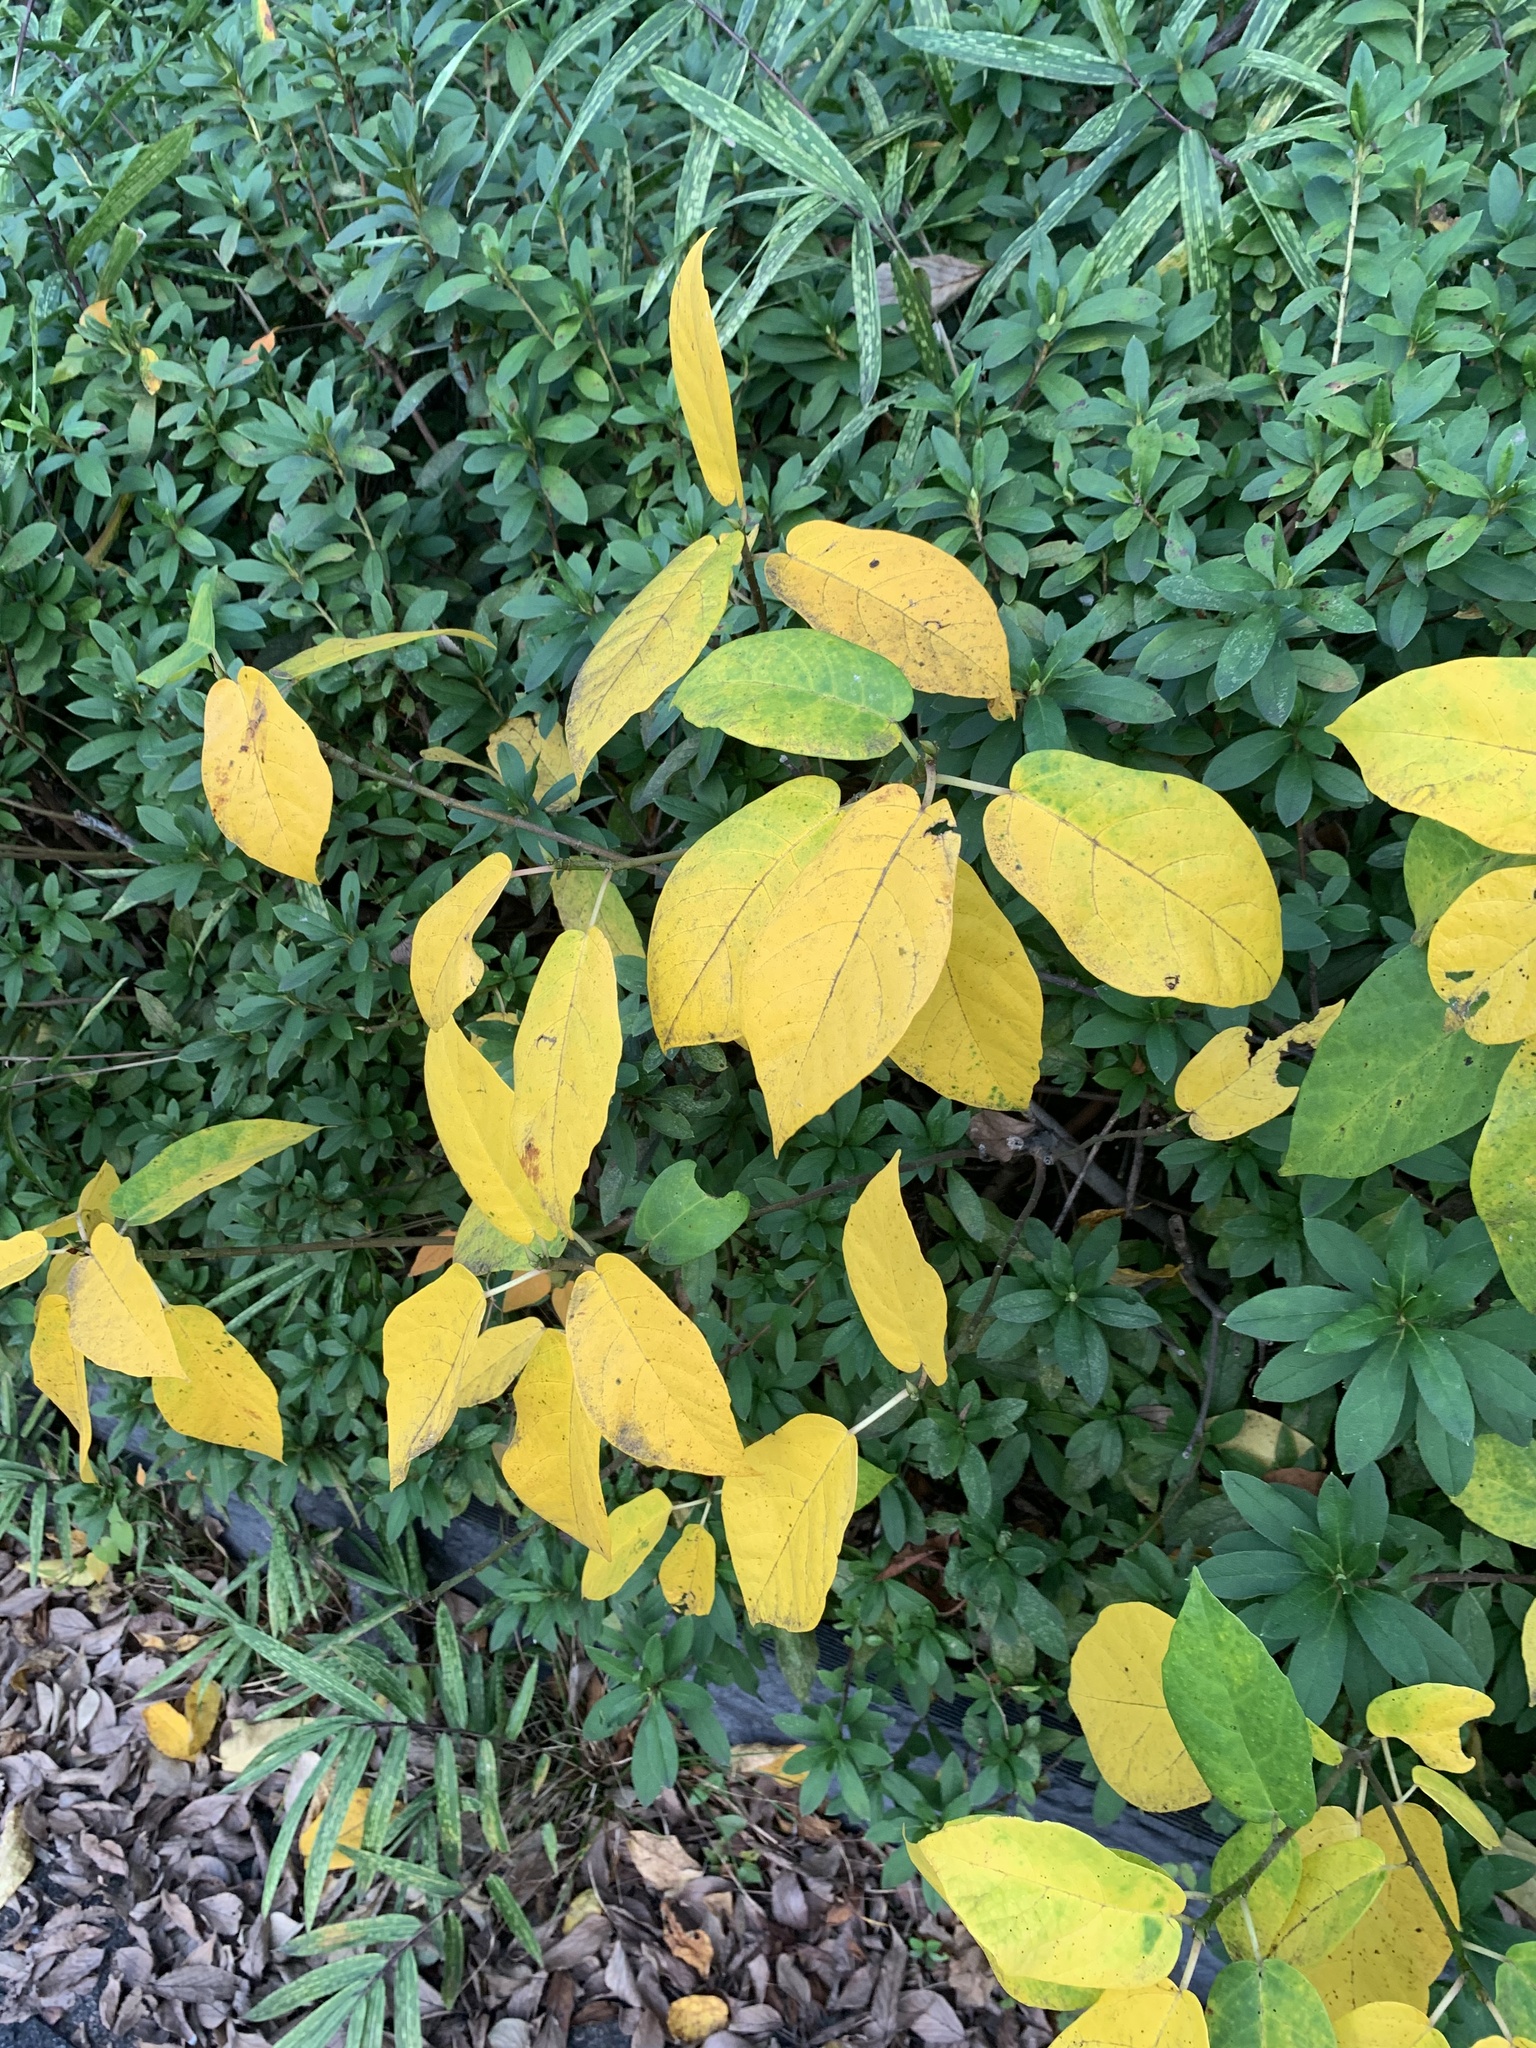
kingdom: Plantae
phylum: Tracheophyta
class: Magnoliopsida
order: Rosales
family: Moraceae
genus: Ficus
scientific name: Ficus erecta
